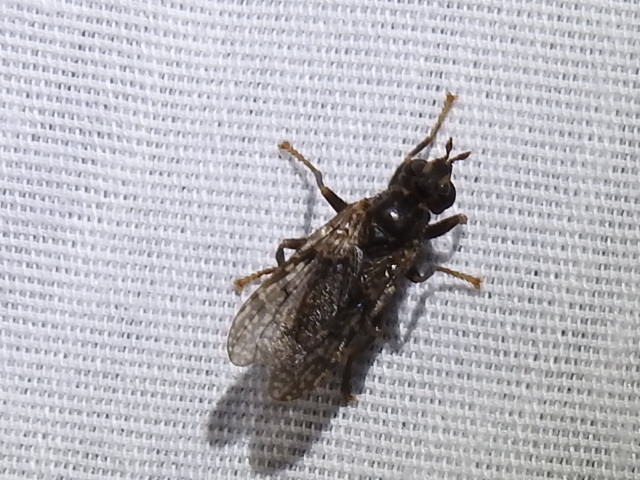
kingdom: Animalia
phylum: Arthropoda
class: Insecta
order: Diptera
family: Pyrgotidae
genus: Pyrgota
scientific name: Pyrgota valida
